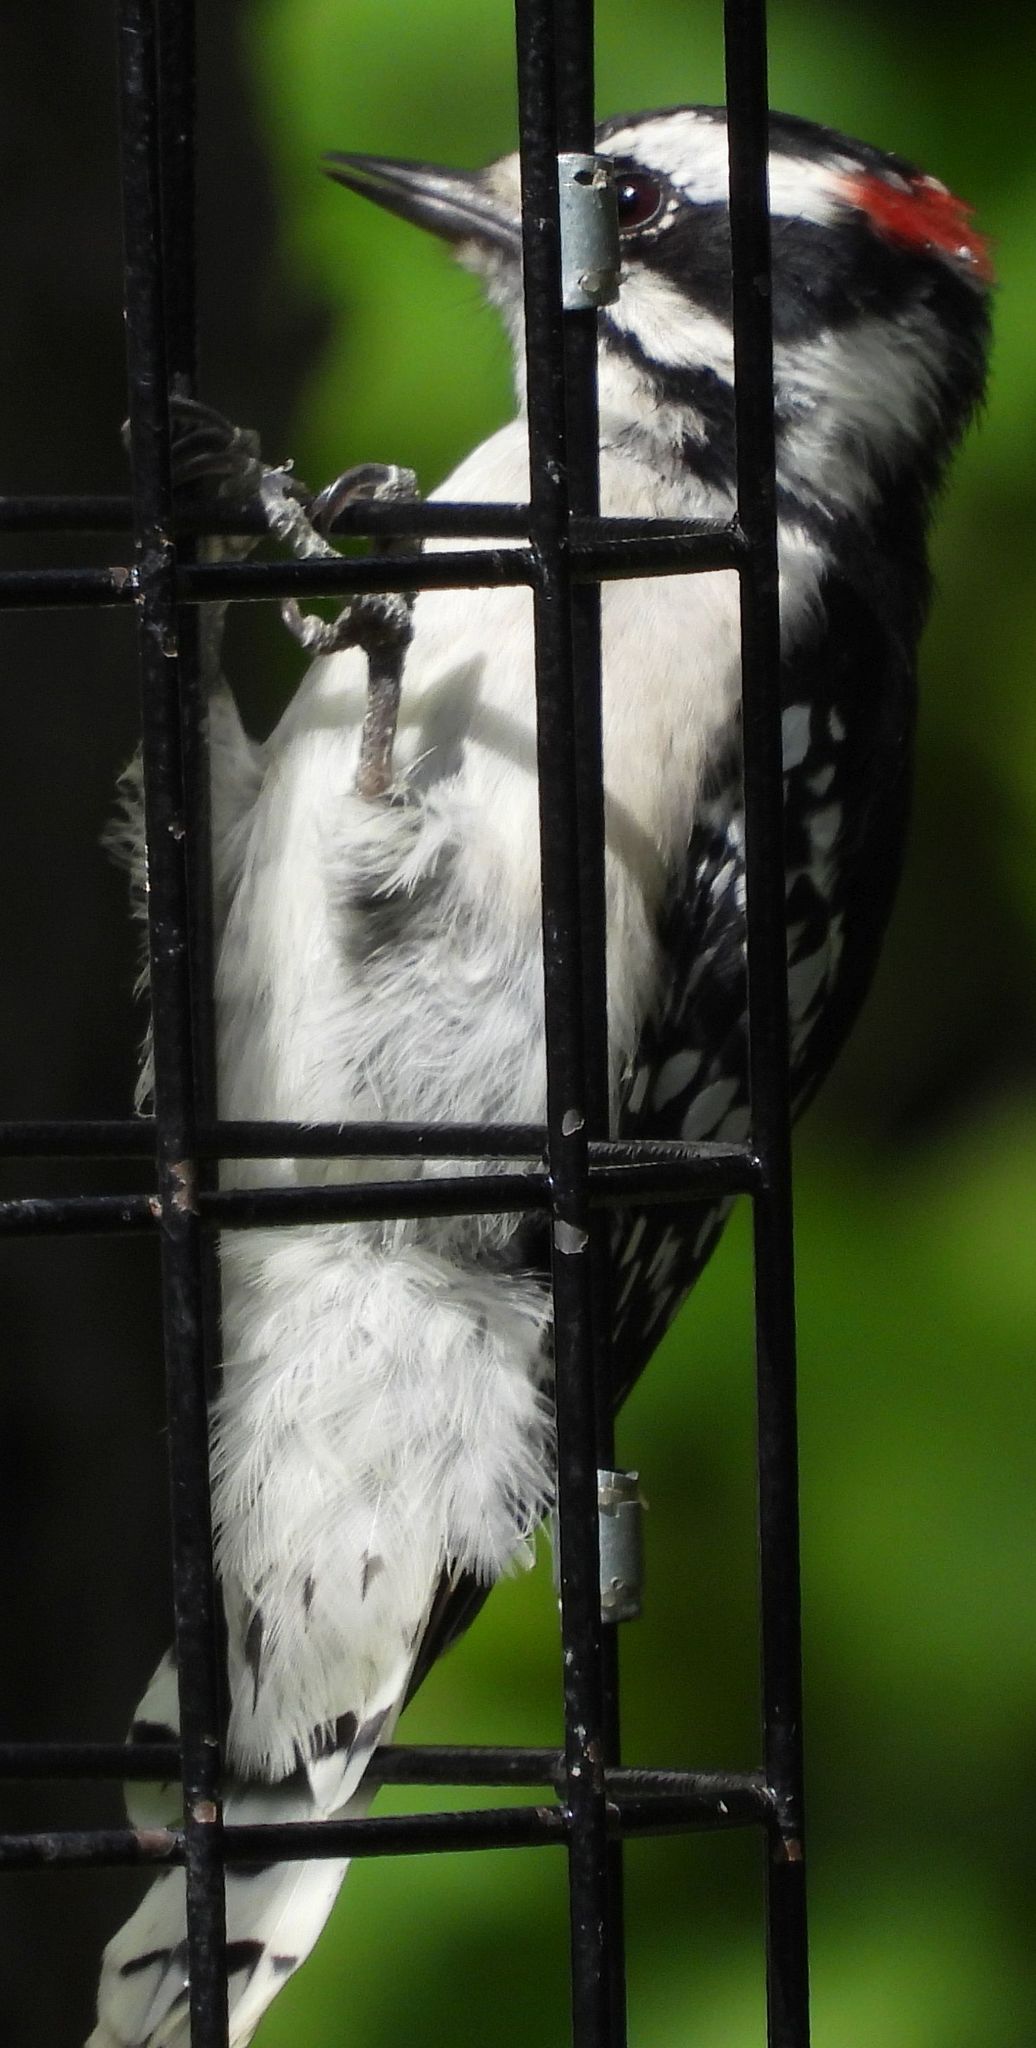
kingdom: Animalia
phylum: Chordata
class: Aves
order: Piciformes
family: Picidae
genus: Dryobates
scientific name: Dryobates pubescens
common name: Downy woodpecker
